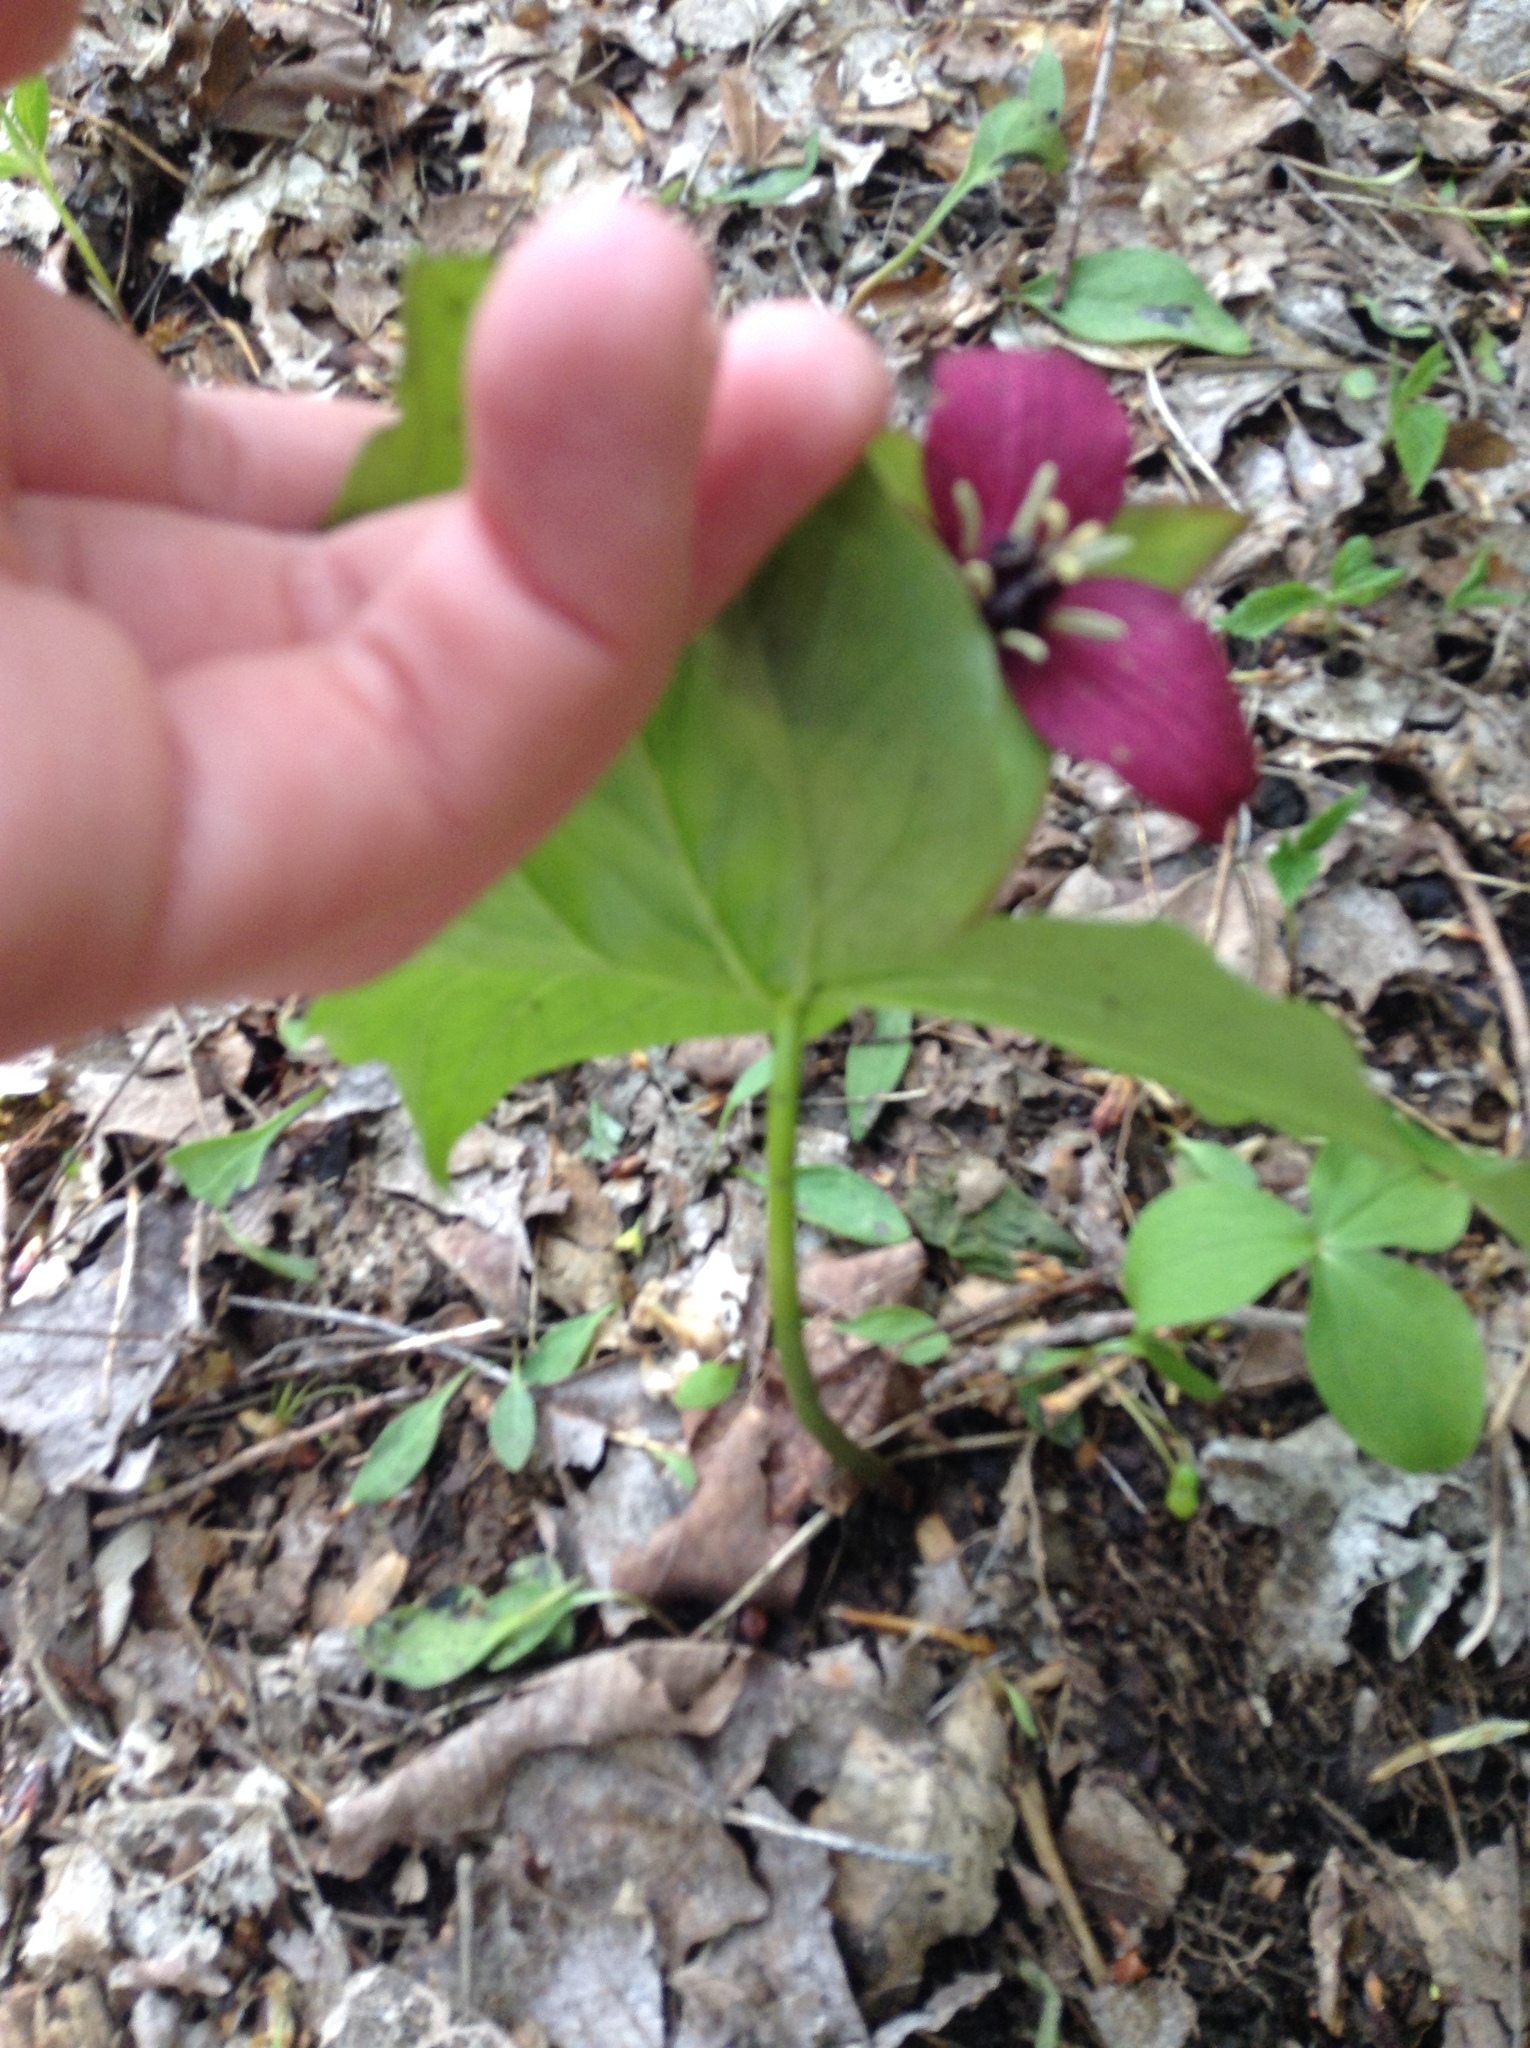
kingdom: Plantae
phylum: Tracheophyta
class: Liliopsida
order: Liliales
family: Melanthiaceae
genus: Trillium
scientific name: Trillium erectum
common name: Purple trillium
